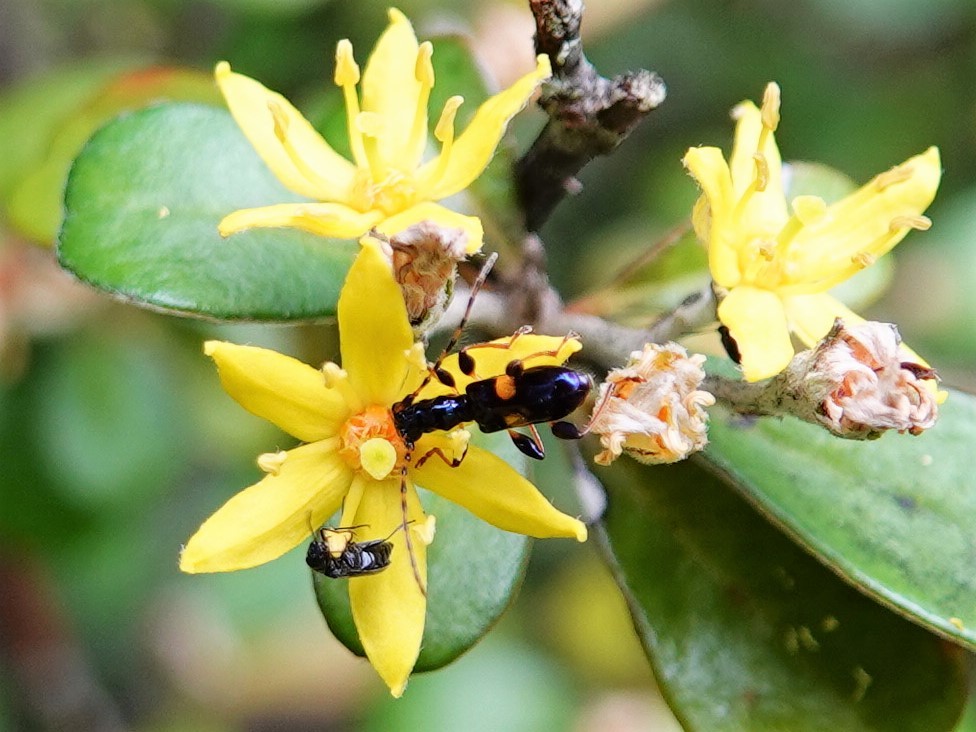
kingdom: Animalia
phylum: Arthropoda
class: Insecta
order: Coleoptera
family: Cerambycidae
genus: Zorion
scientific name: Zorion guttigerum
